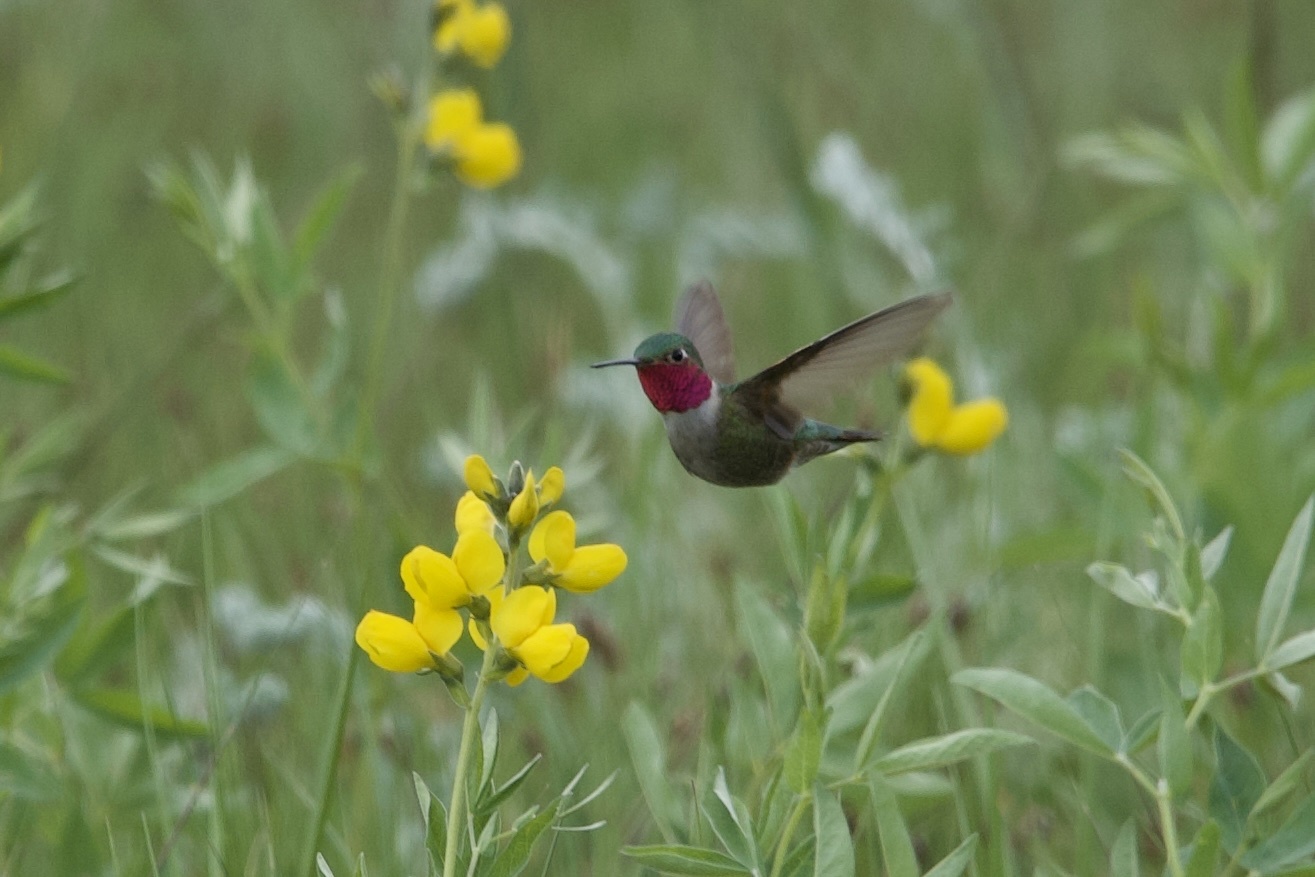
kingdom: Animalia
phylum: Chordata
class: Aves
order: Apodiformes
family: Trochilidae
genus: Selasphorus
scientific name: Selasphorus platycercus
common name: Broad-tailed hummingbird
